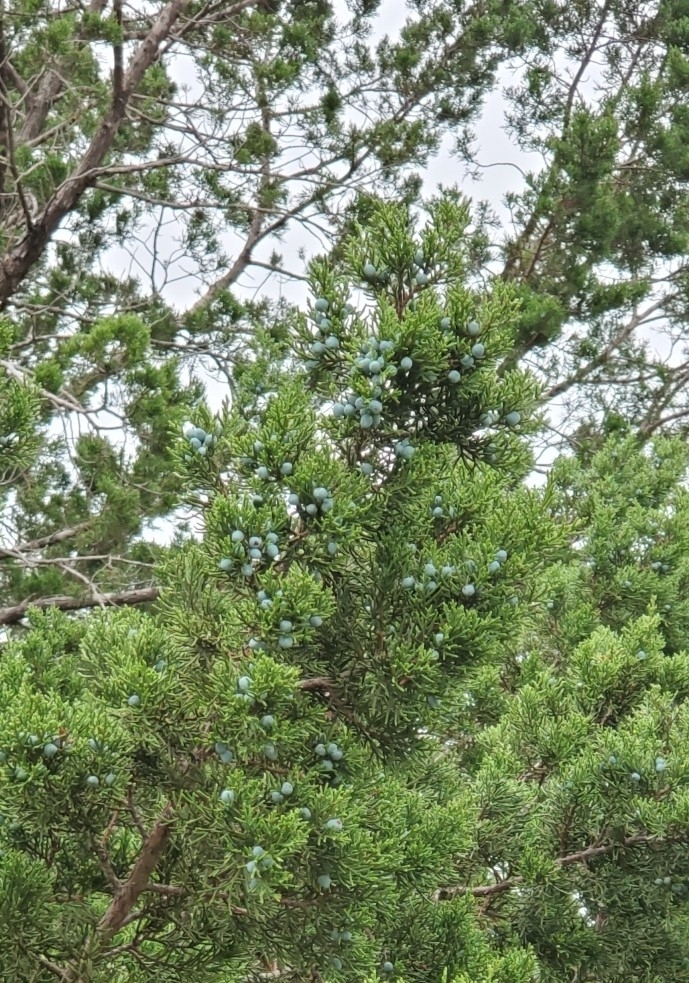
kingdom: Plantae
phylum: Tracheophyta
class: Pinopsida
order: Pinales
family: Cupressaceae
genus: Juniperus
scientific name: Juniperus ashei
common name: Mexican juniper
